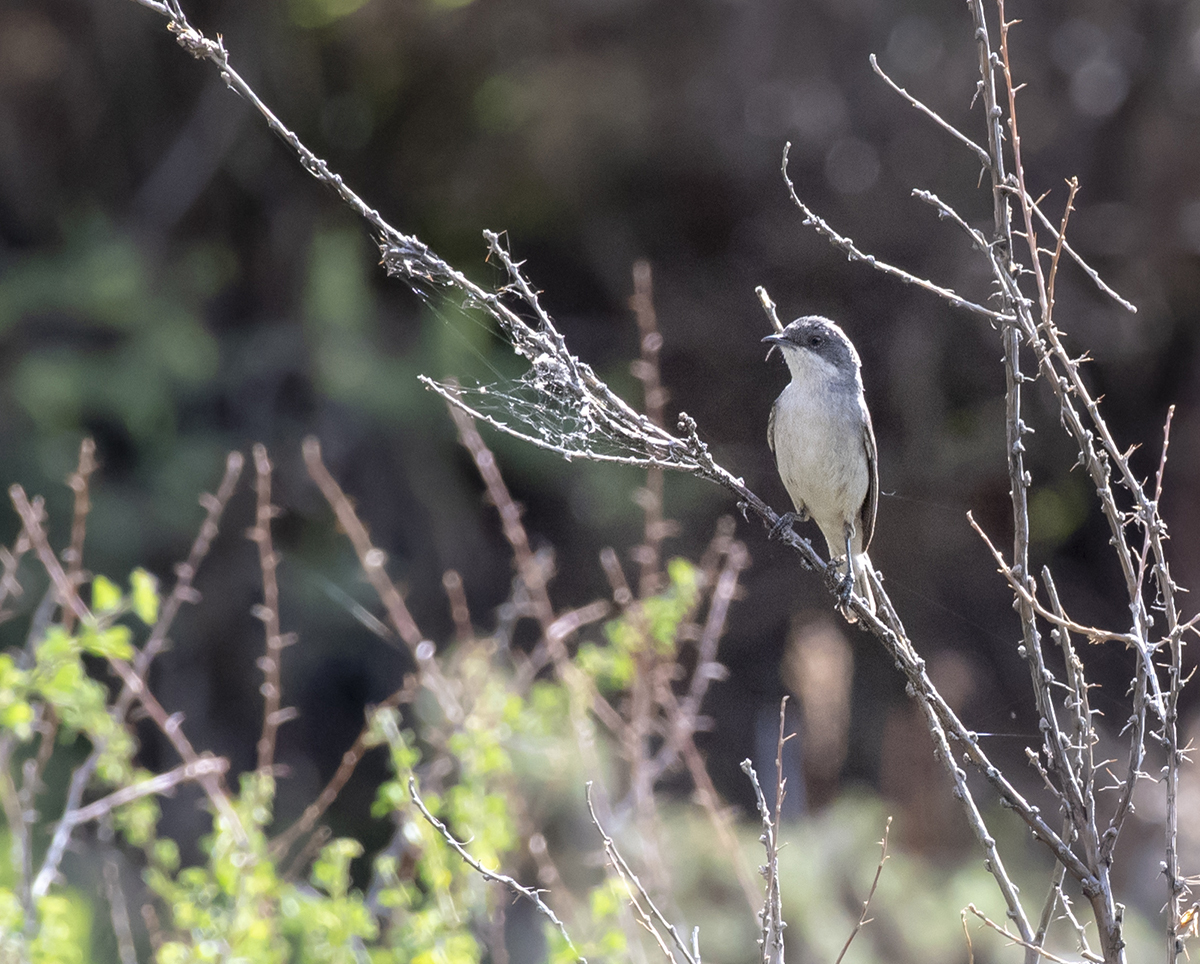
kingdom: Animalia
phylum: Chordata
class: Aves
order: Passeriformes
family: Sylviidae
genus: Sylvia
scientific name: Sylvia curruca
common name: Lesser whitethroat
